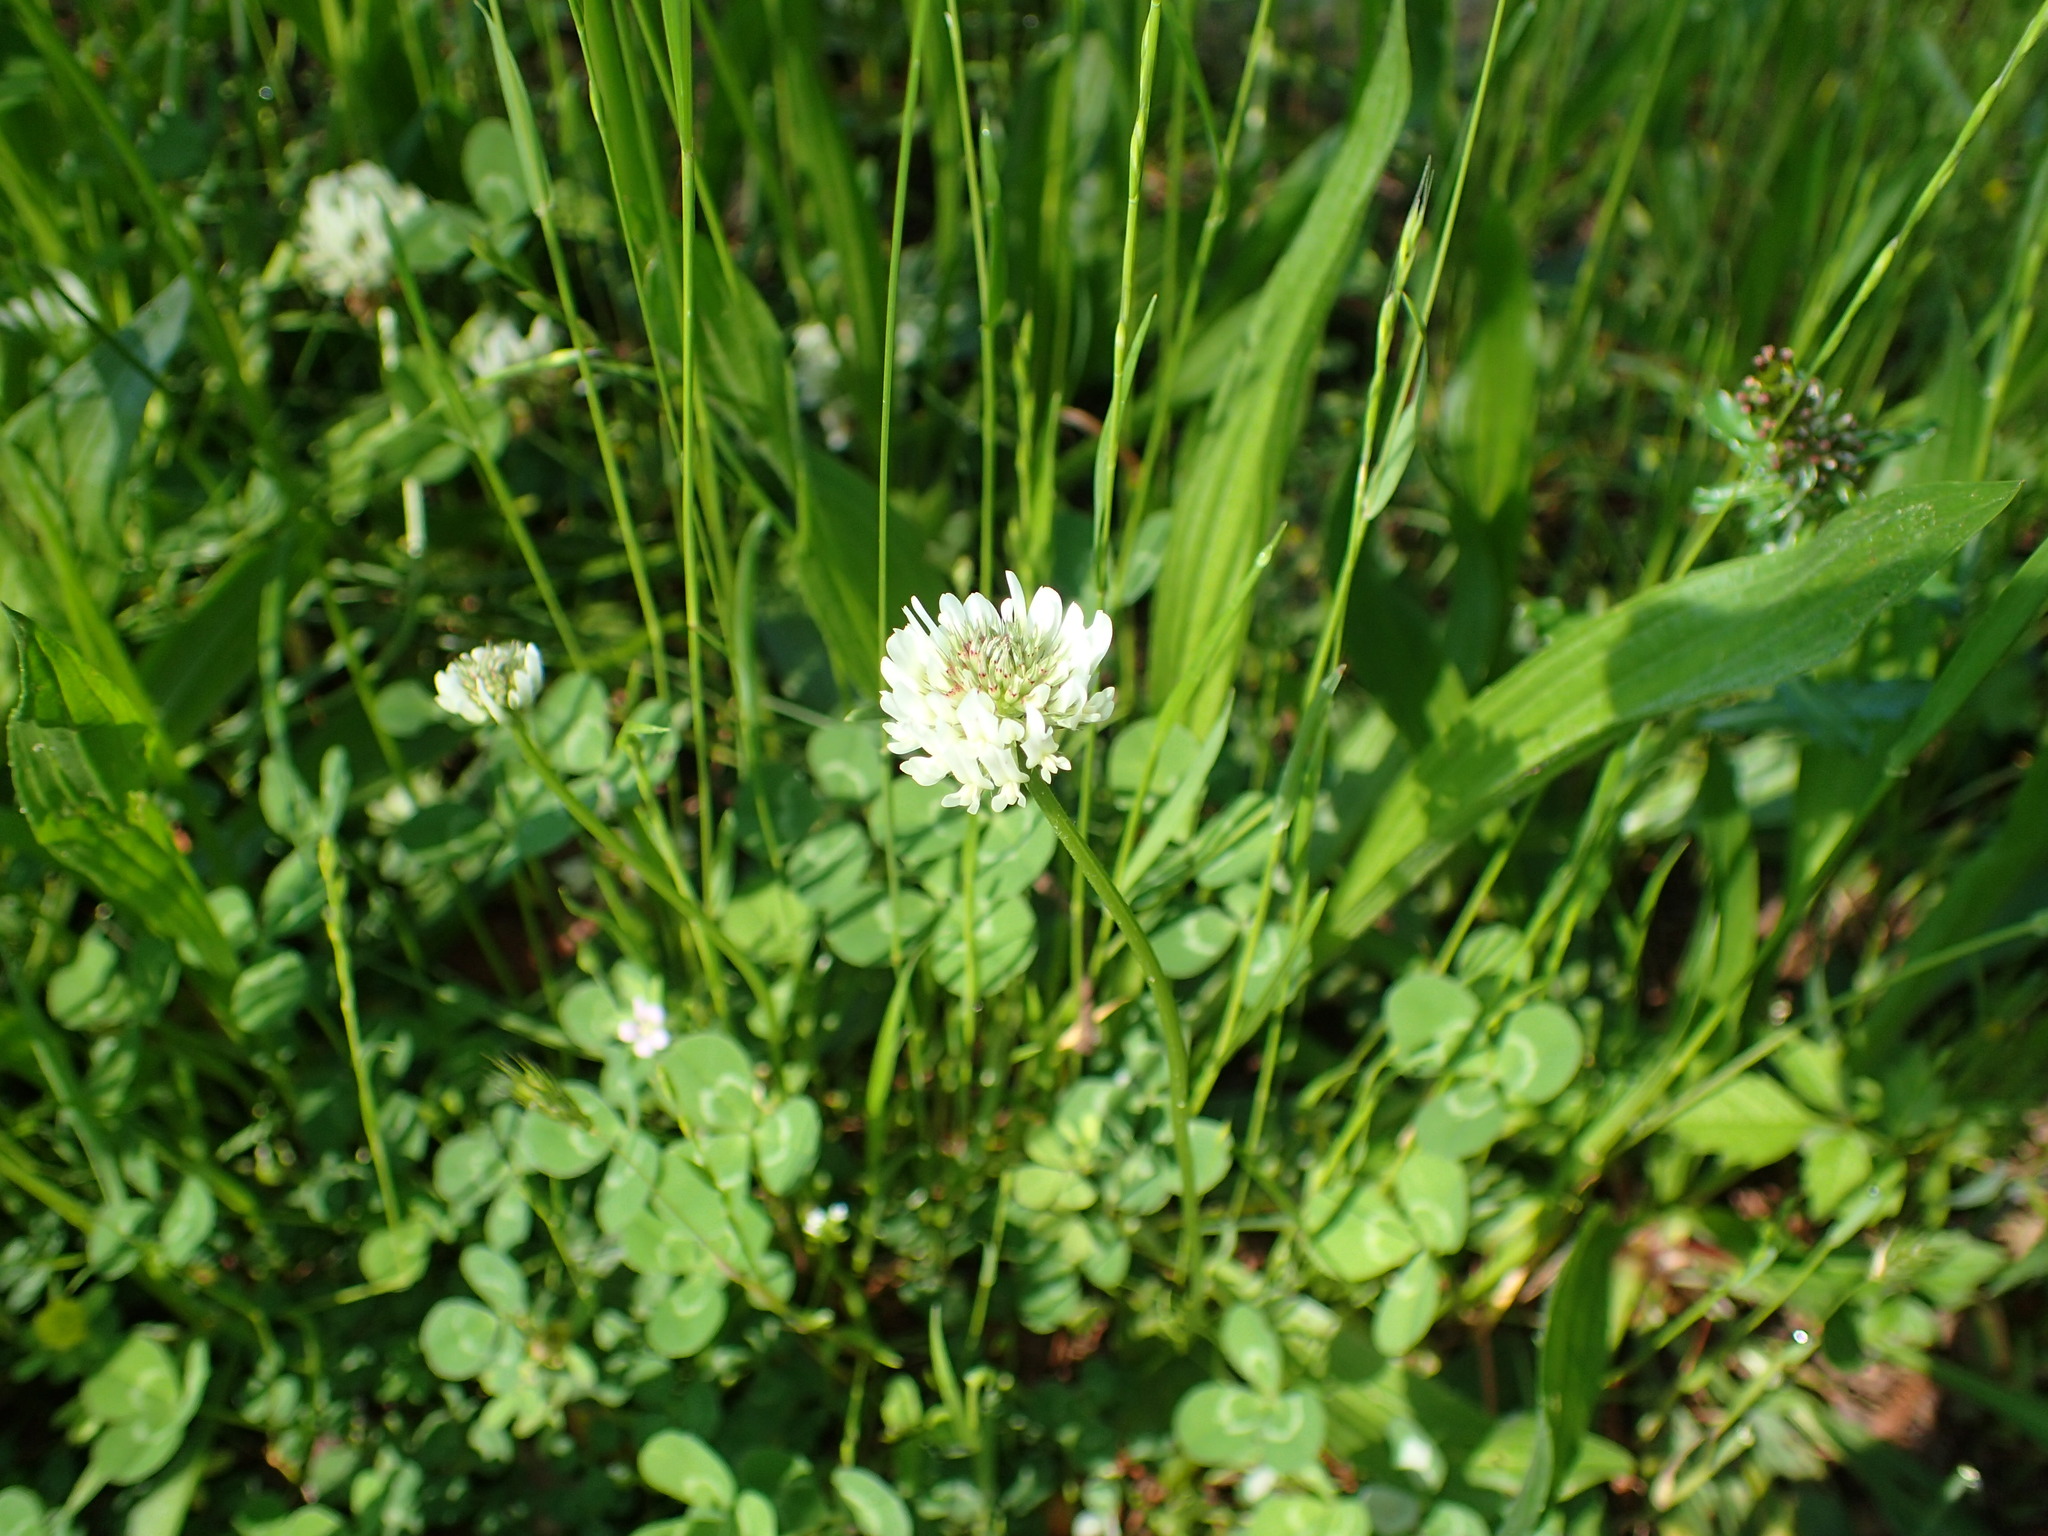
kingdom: Plantae
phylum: Tracheophyta
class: Magnoliopsida
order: Fabales
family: Fabaceae
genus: Trifolium
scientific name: Trifolium repens
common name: White clover
